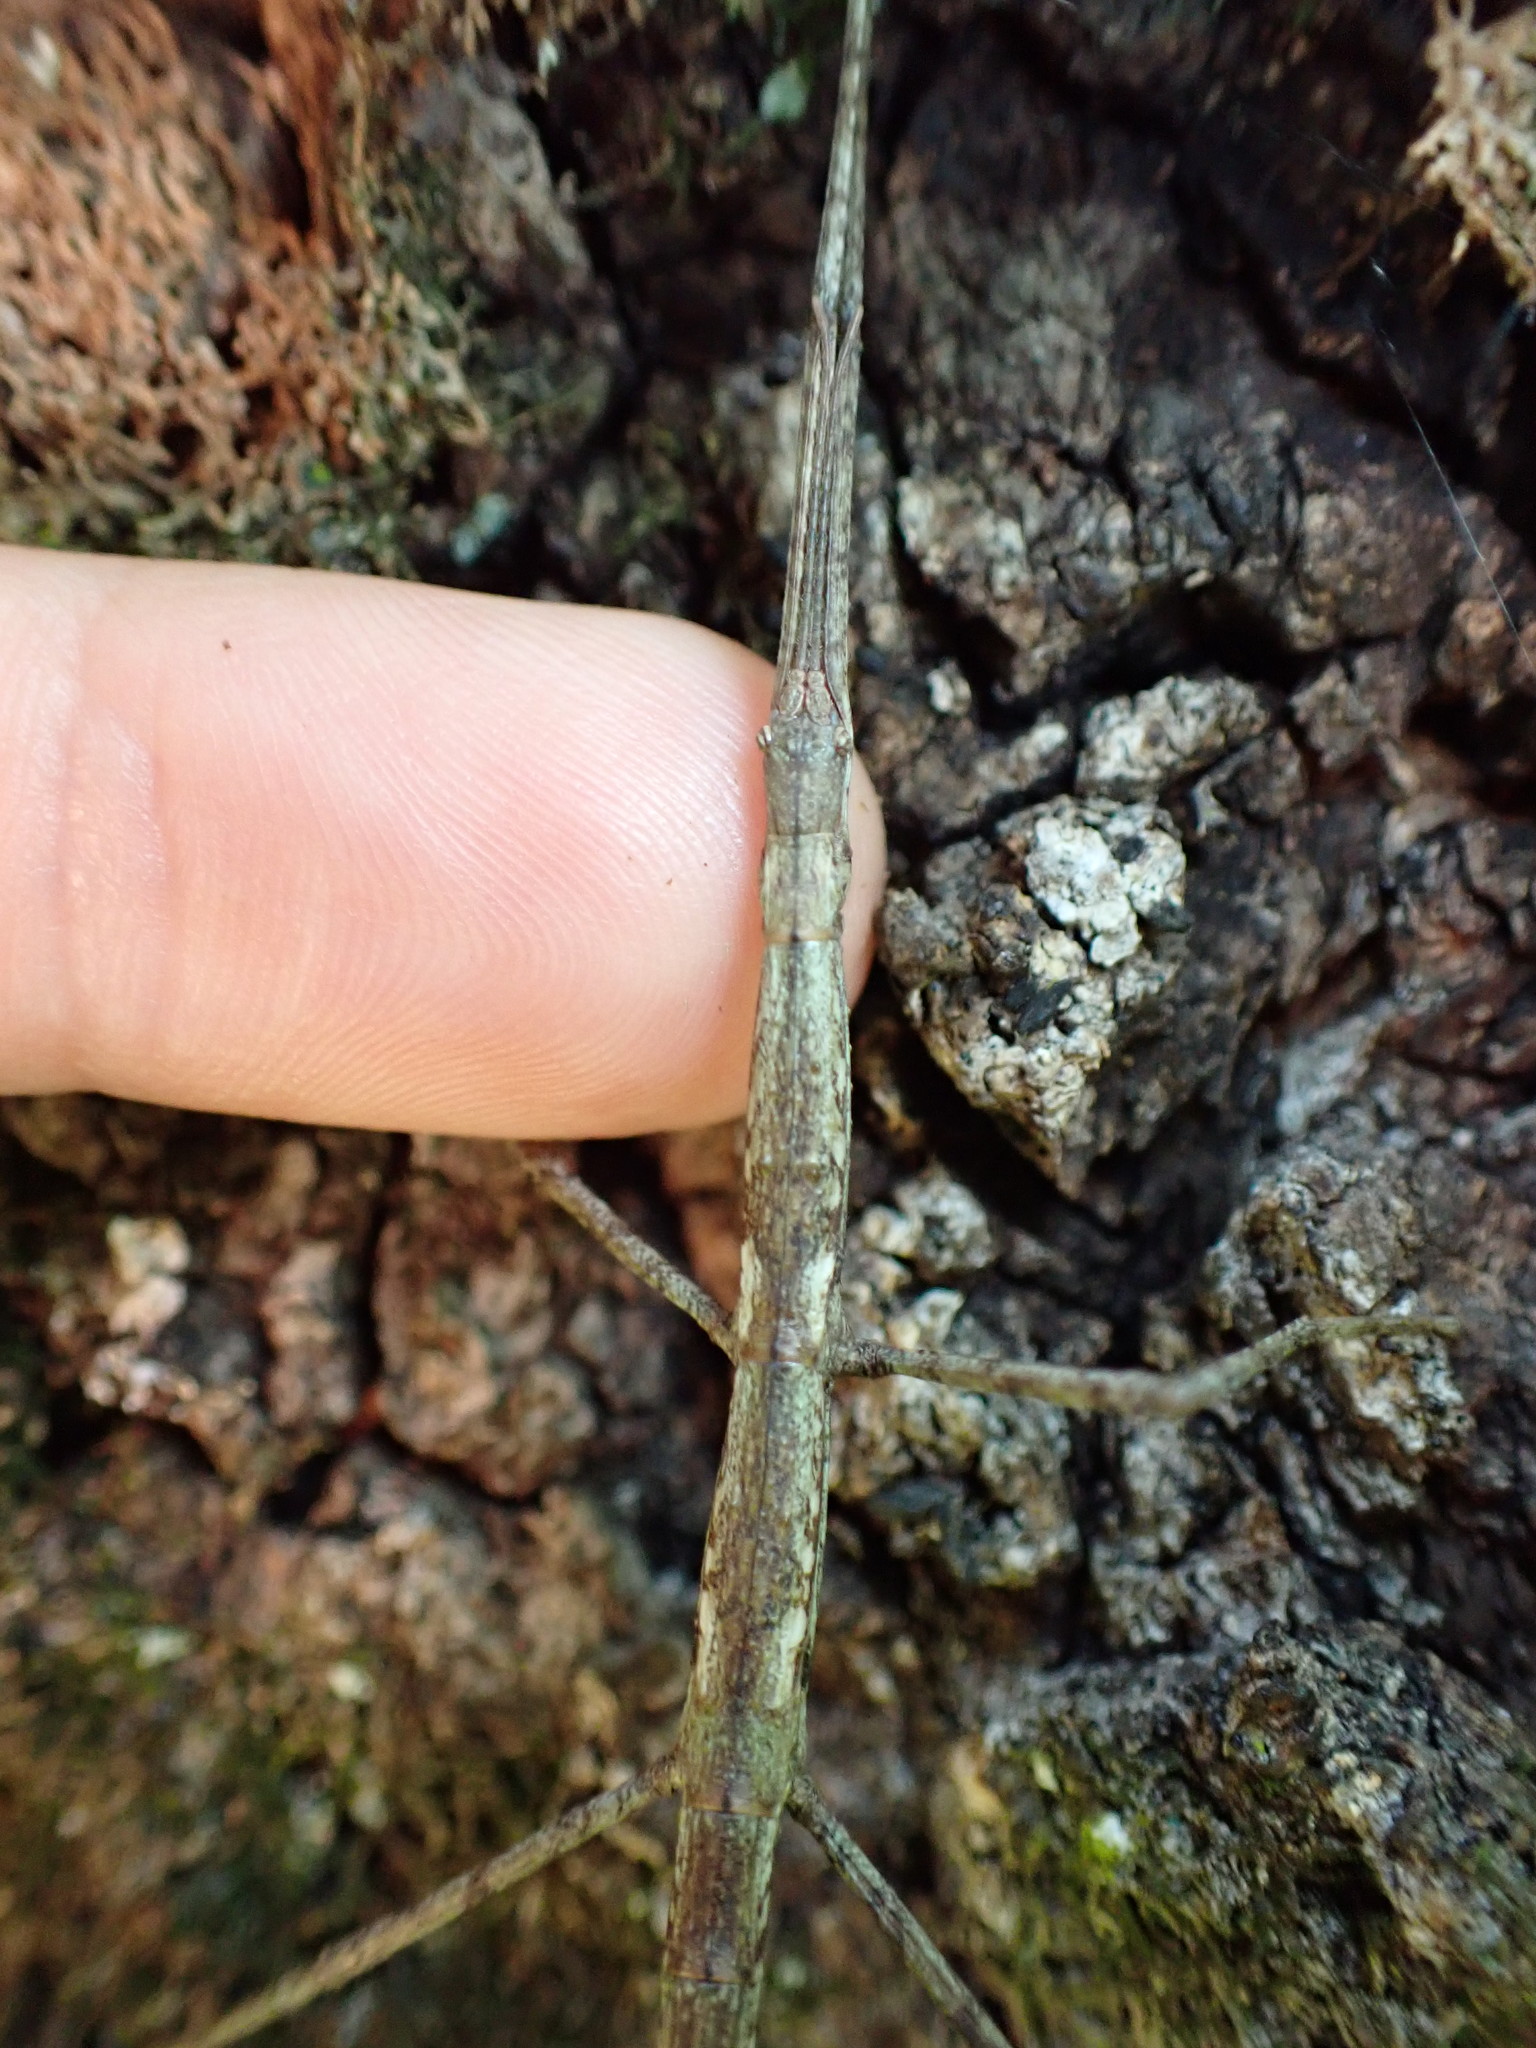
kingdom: Animalia
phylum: Arthropoda
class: Insecta
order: Phasmida
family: Phasmatidae
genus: Clitarchus
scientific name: Clitarchus hookeri
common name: Smooth stick insect
